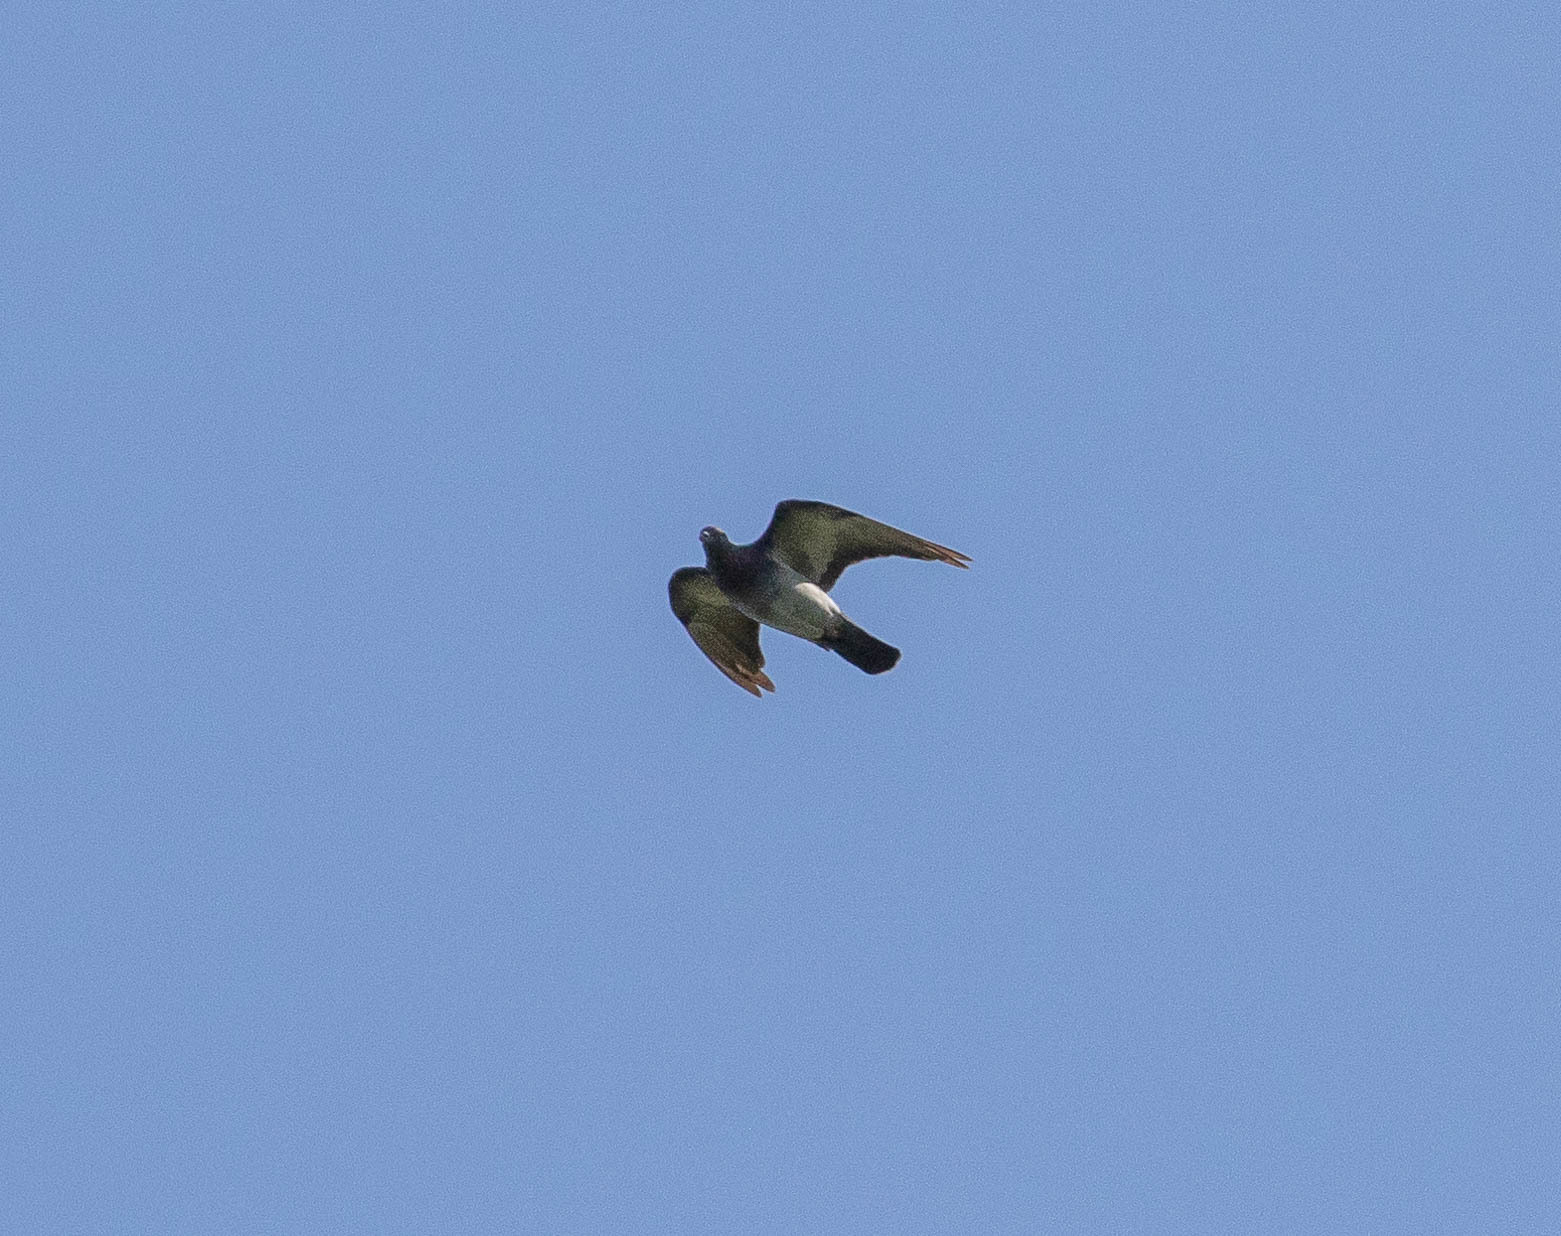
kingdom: Animalia
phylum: Chordata
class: Aves
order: Columbiformes
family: Columbidae
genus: Columba
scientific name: Columba livia
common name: Rock pigeon
